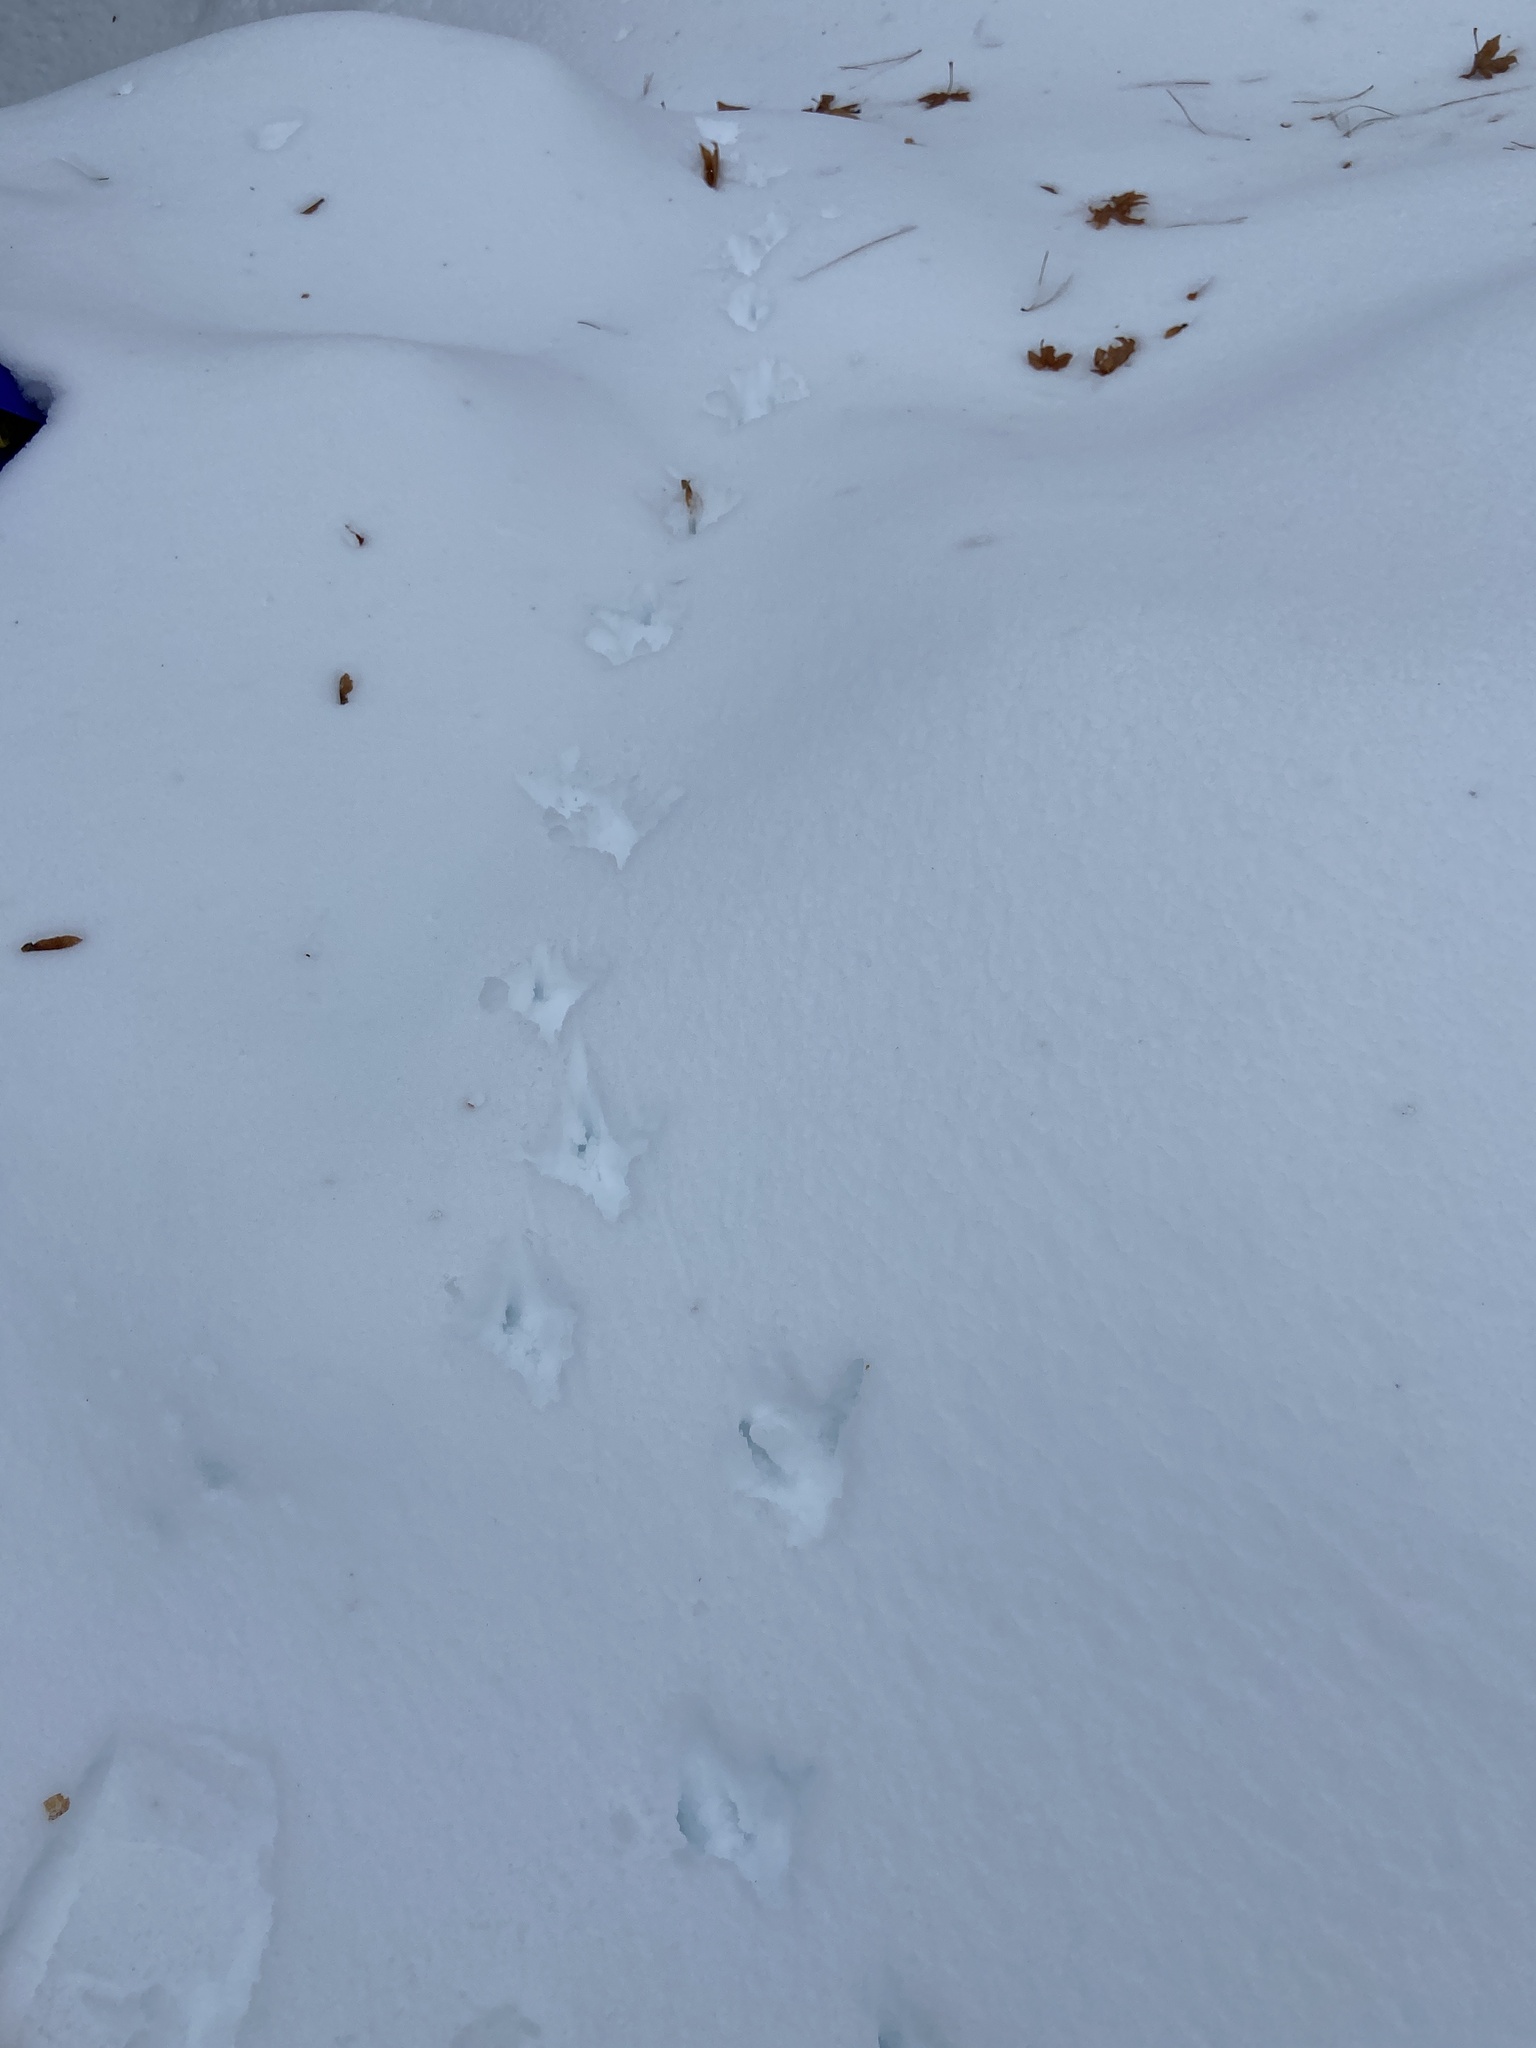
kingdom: Animalia
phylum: Chordata
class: Aves
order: Galliformes
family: Phasianidae
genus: Meleagris
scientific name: Meleagris gallopavo
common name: Wild turkey
